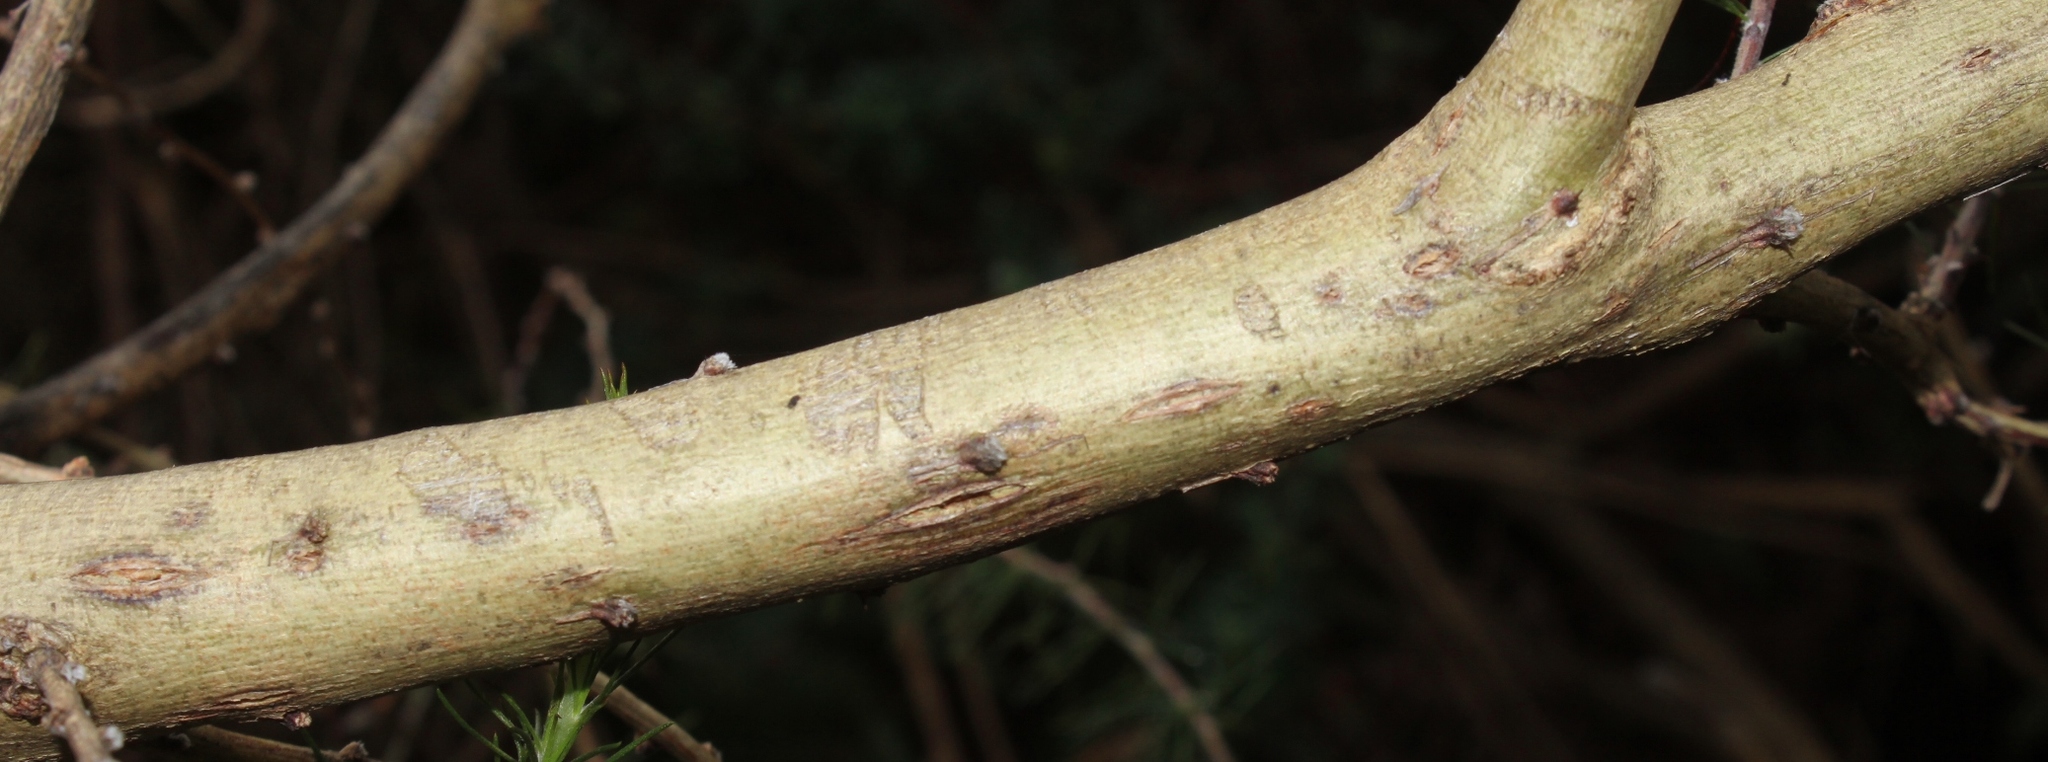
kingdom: Plantae
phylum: Tracheophyta
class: Magnoliopsida
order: Fabales
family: Fabaceae
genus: Aspalathus
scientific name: Aspalathus willdenowiana
